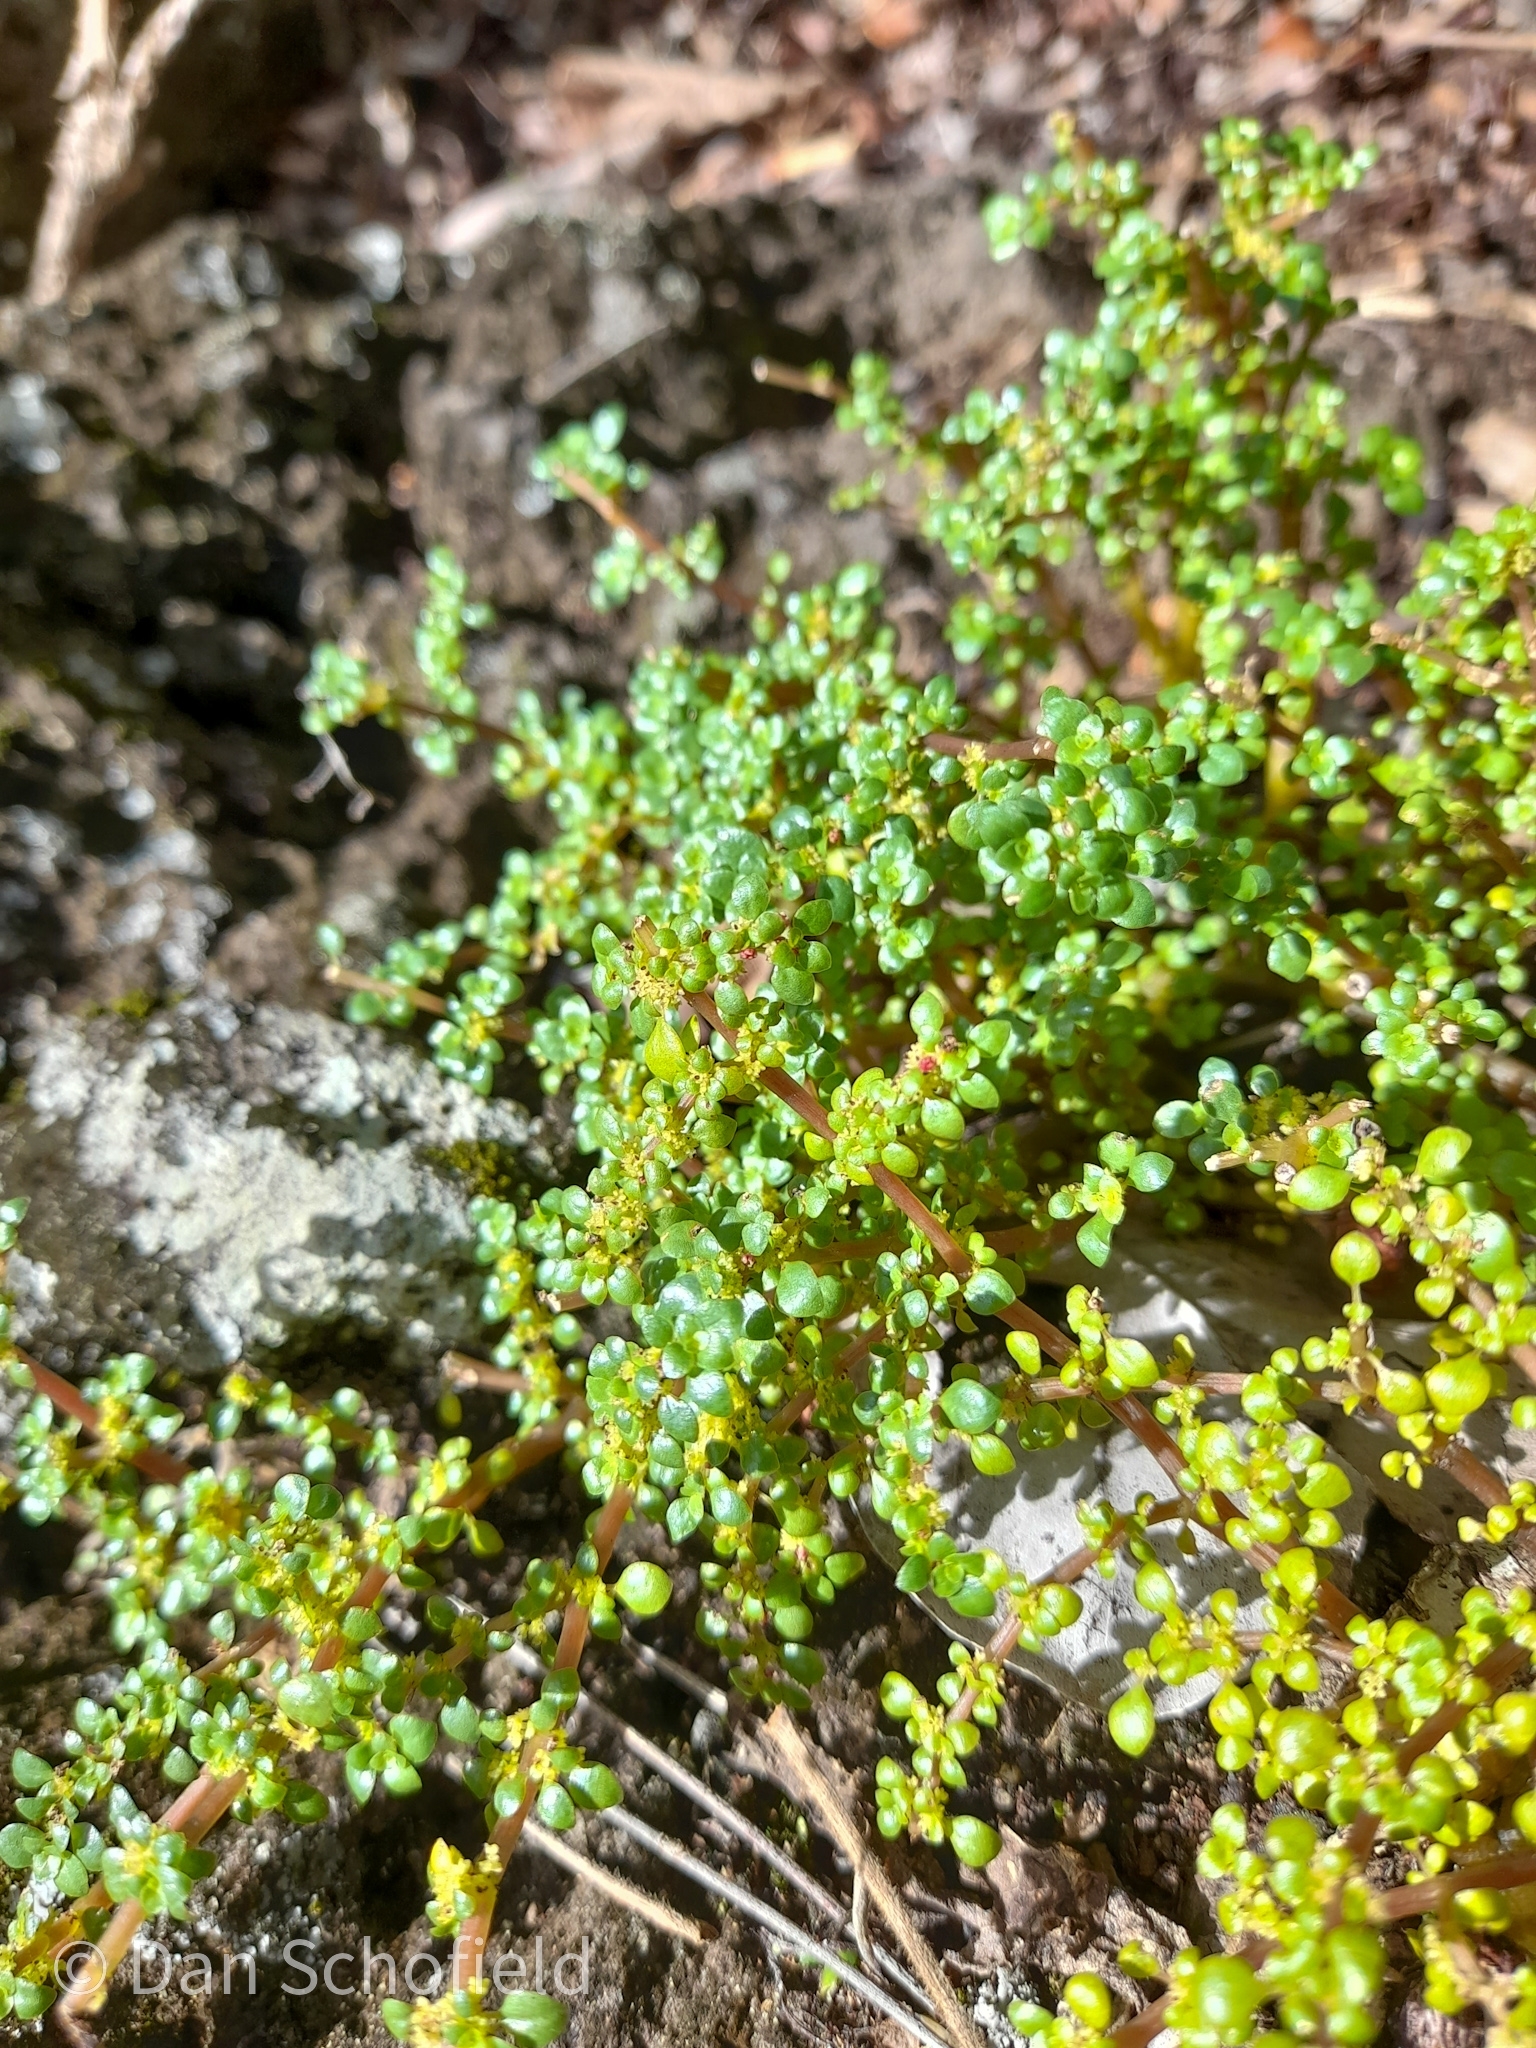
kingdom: Plantae
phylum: Tracheophyta
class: Magnoliopsida
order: Rosales
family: Urticaceae
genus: Pilea
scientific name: Pilea microphylla
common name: Artillery-plant
